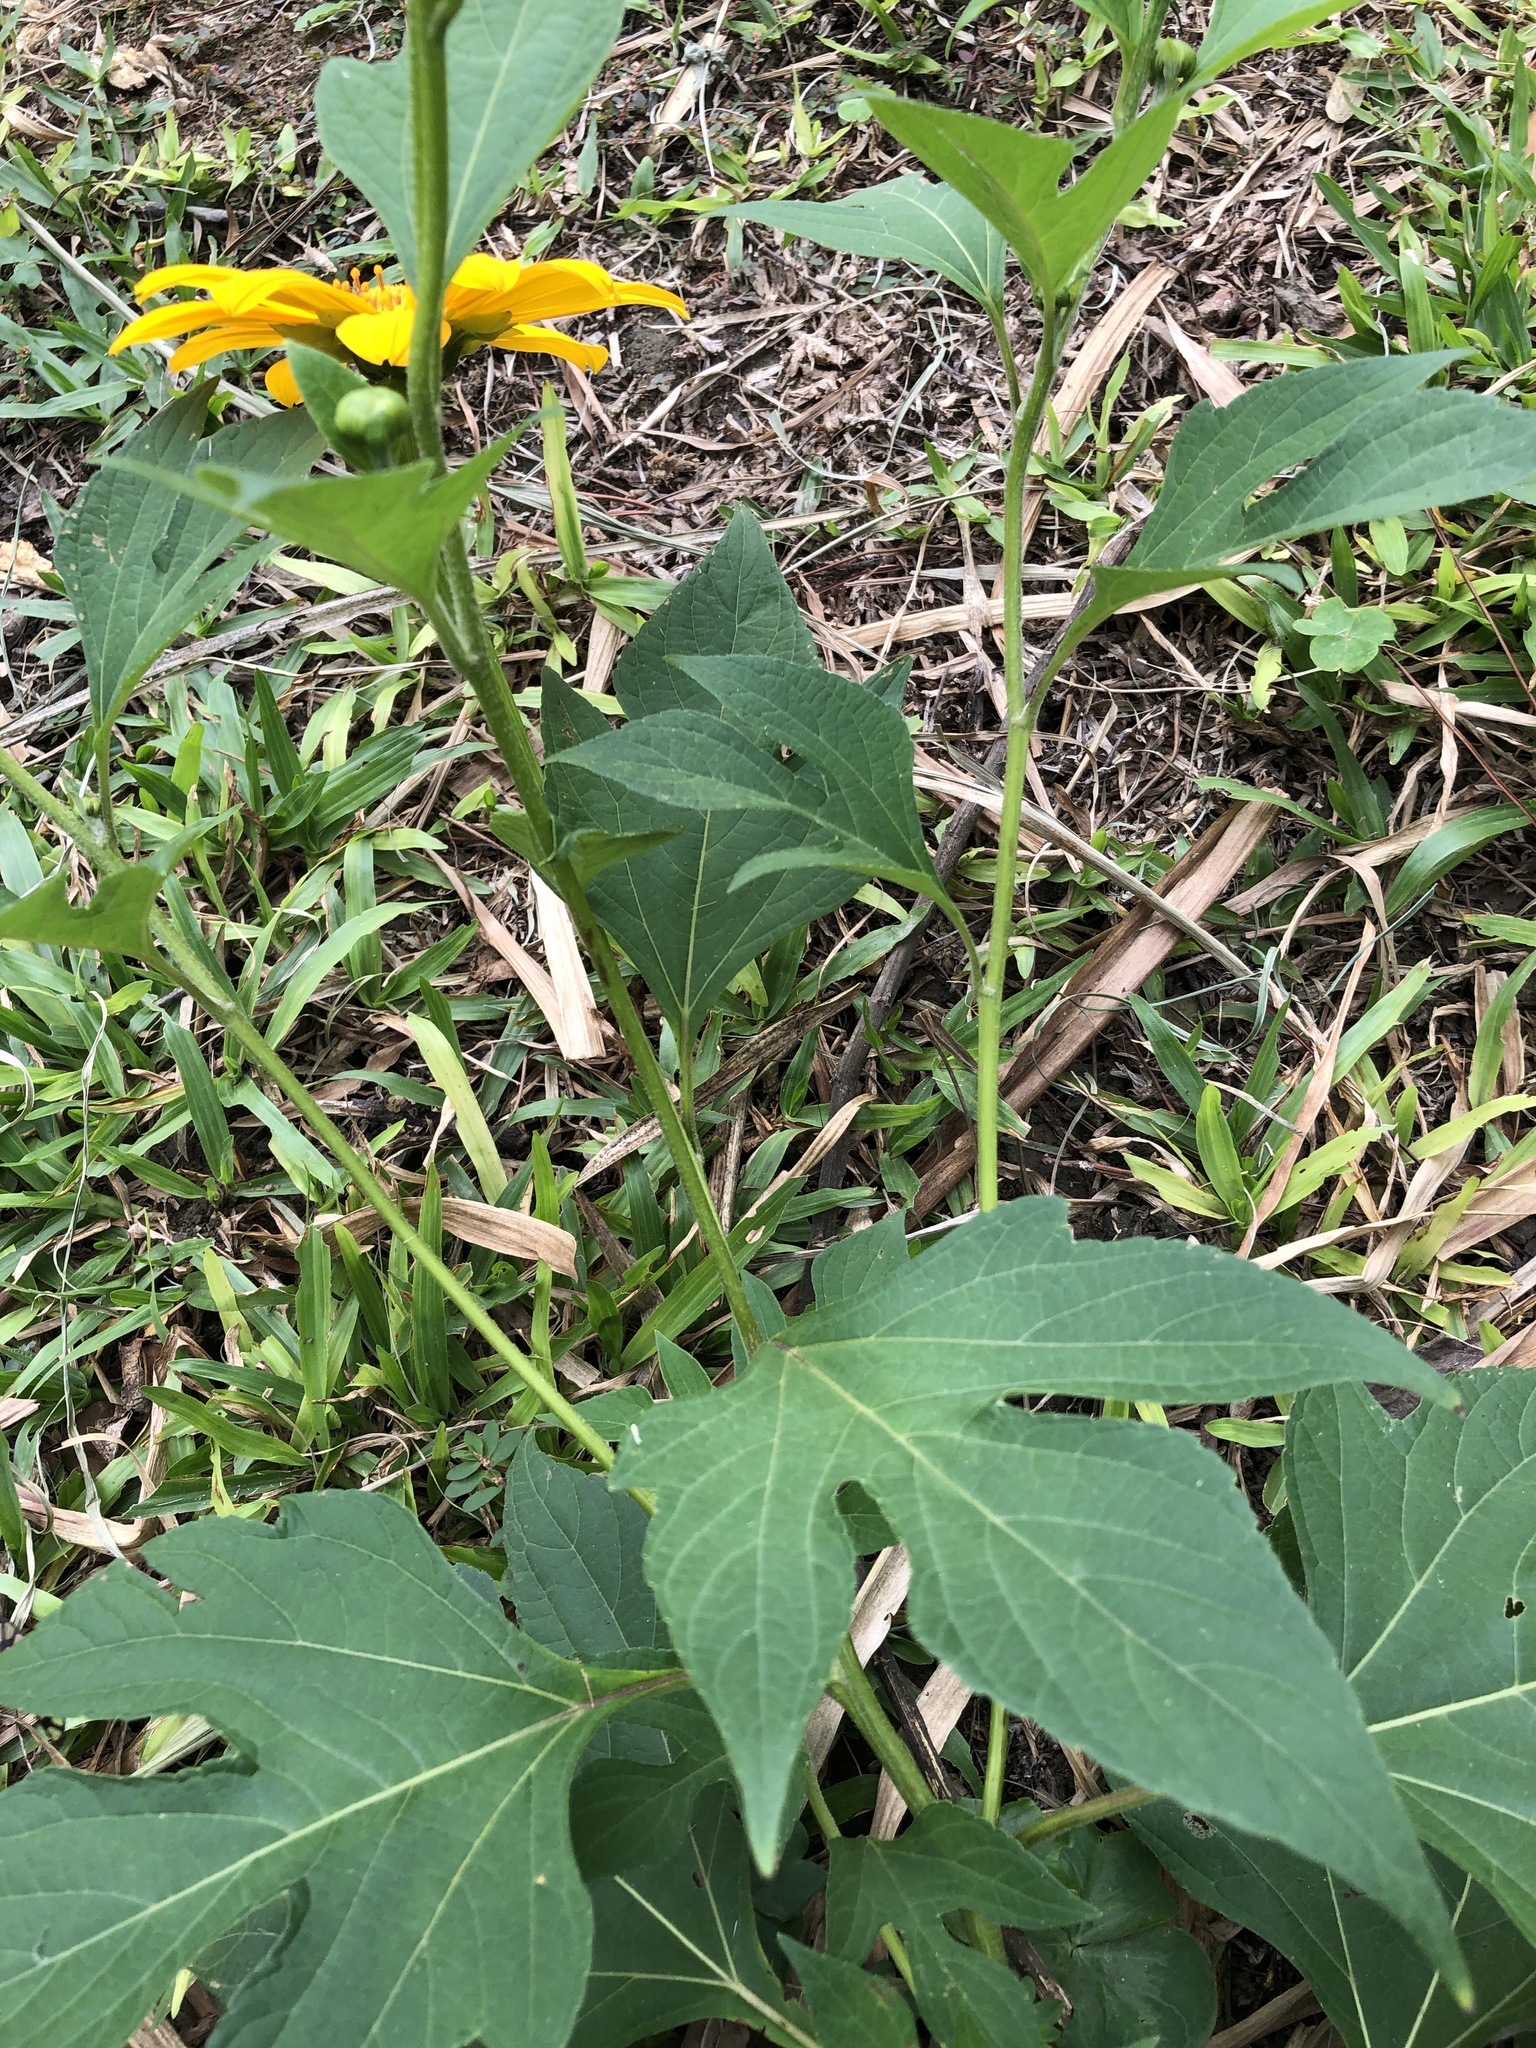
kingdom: Plantae
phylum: Tracheophyta
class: Magnoliopsida
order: Asterales
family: Asteraceae
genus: Tithonia
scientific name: Tithonia diversifolia
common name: Tree marigold
